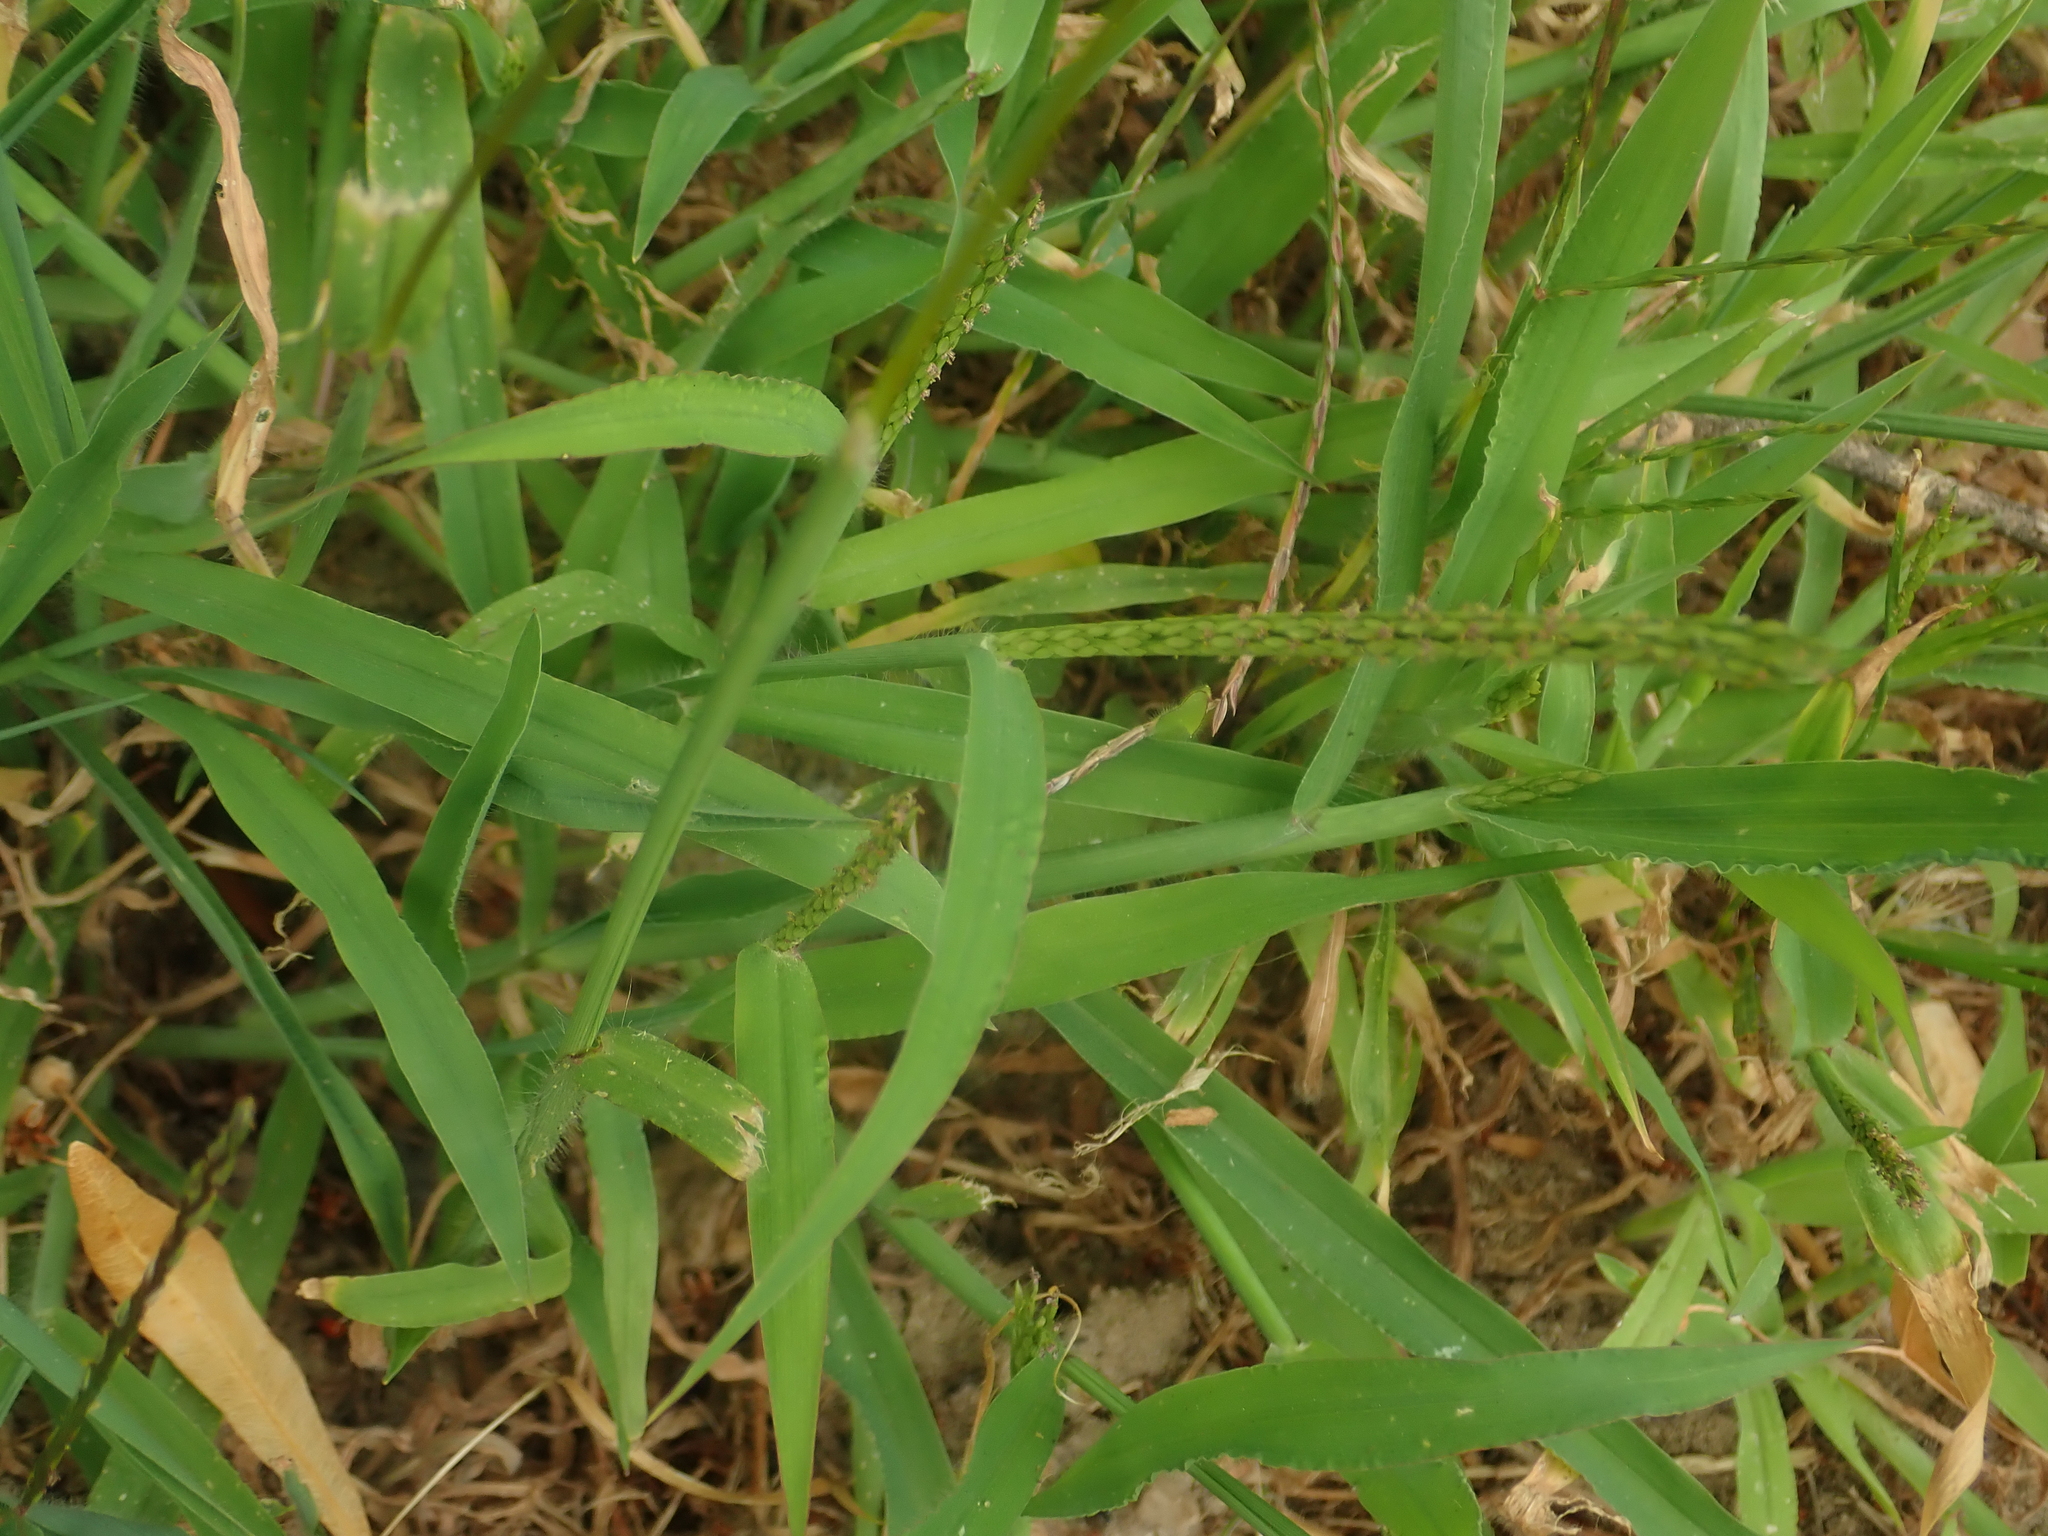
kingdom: Plantae
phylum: Tracheophyta
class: Liliopsida
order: Poales
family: Poaceae
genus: Digitaria
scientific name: Digitaria sanguinalis
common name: Hairy crabgrass
